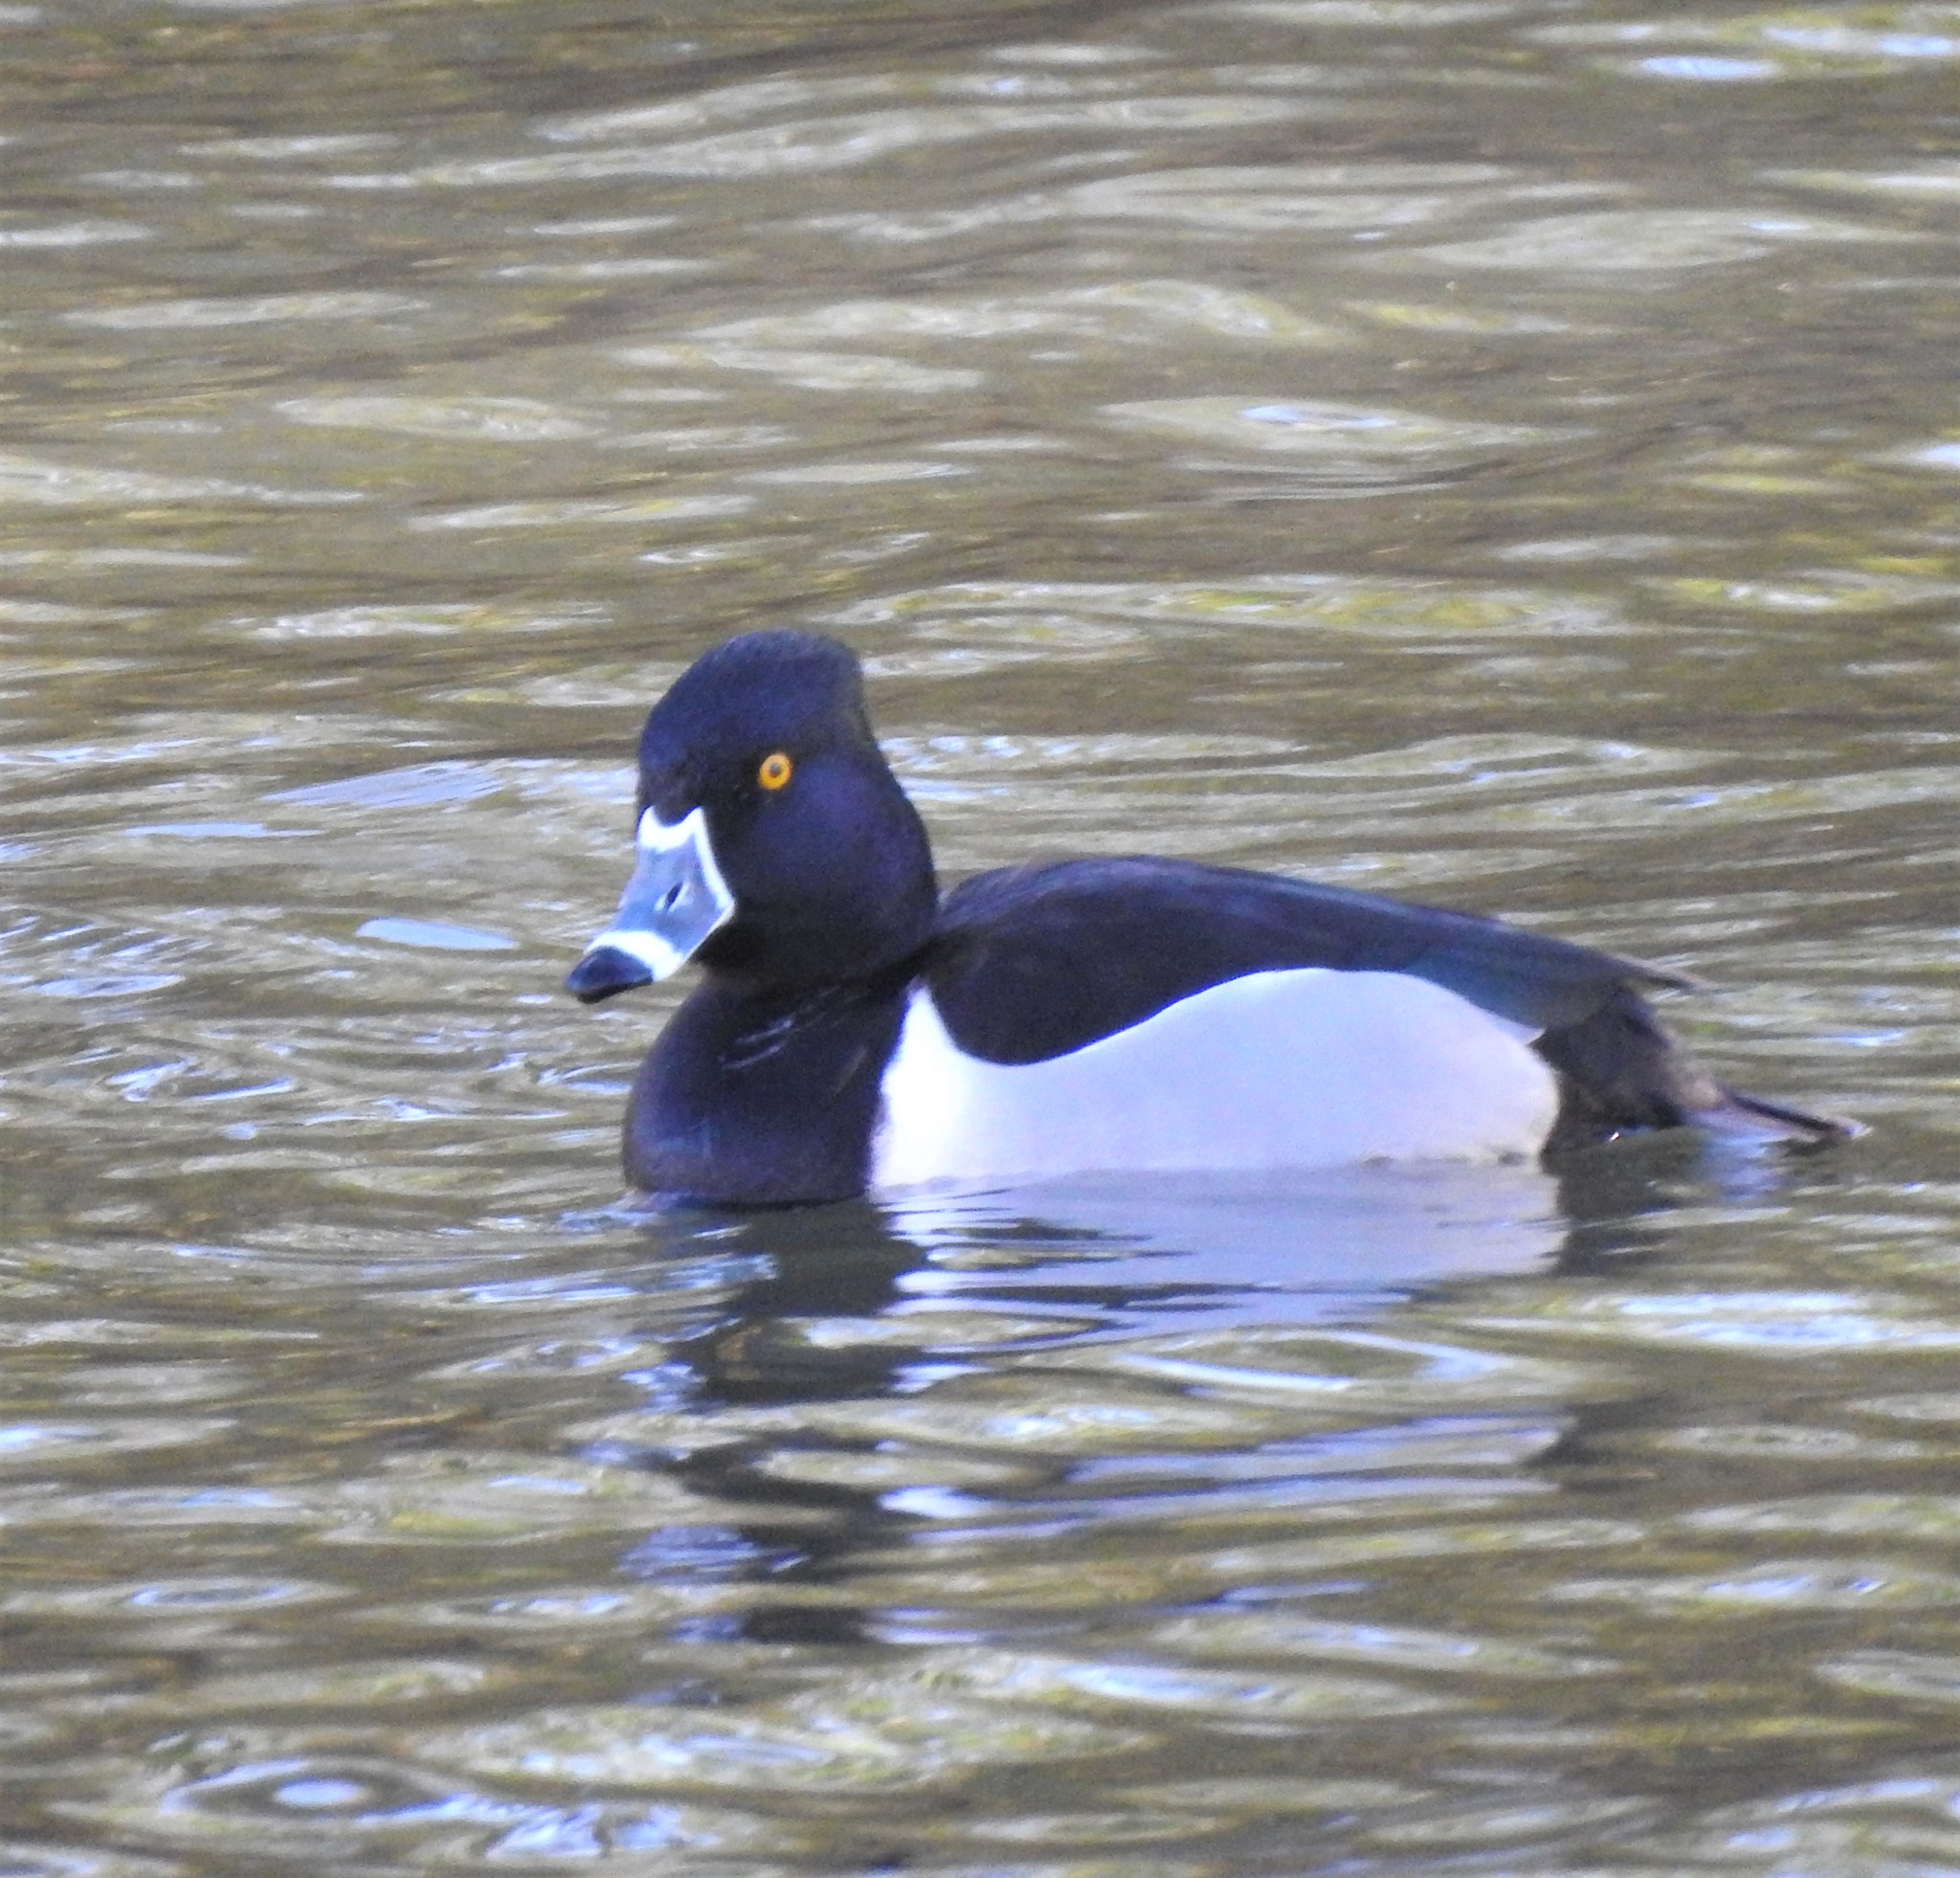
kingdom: Animalia
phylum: Chordata
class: Aves
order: Anseriformes
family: Anatidae
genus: Aythya
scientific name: Aythya collaris
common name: Ring-necked duck
